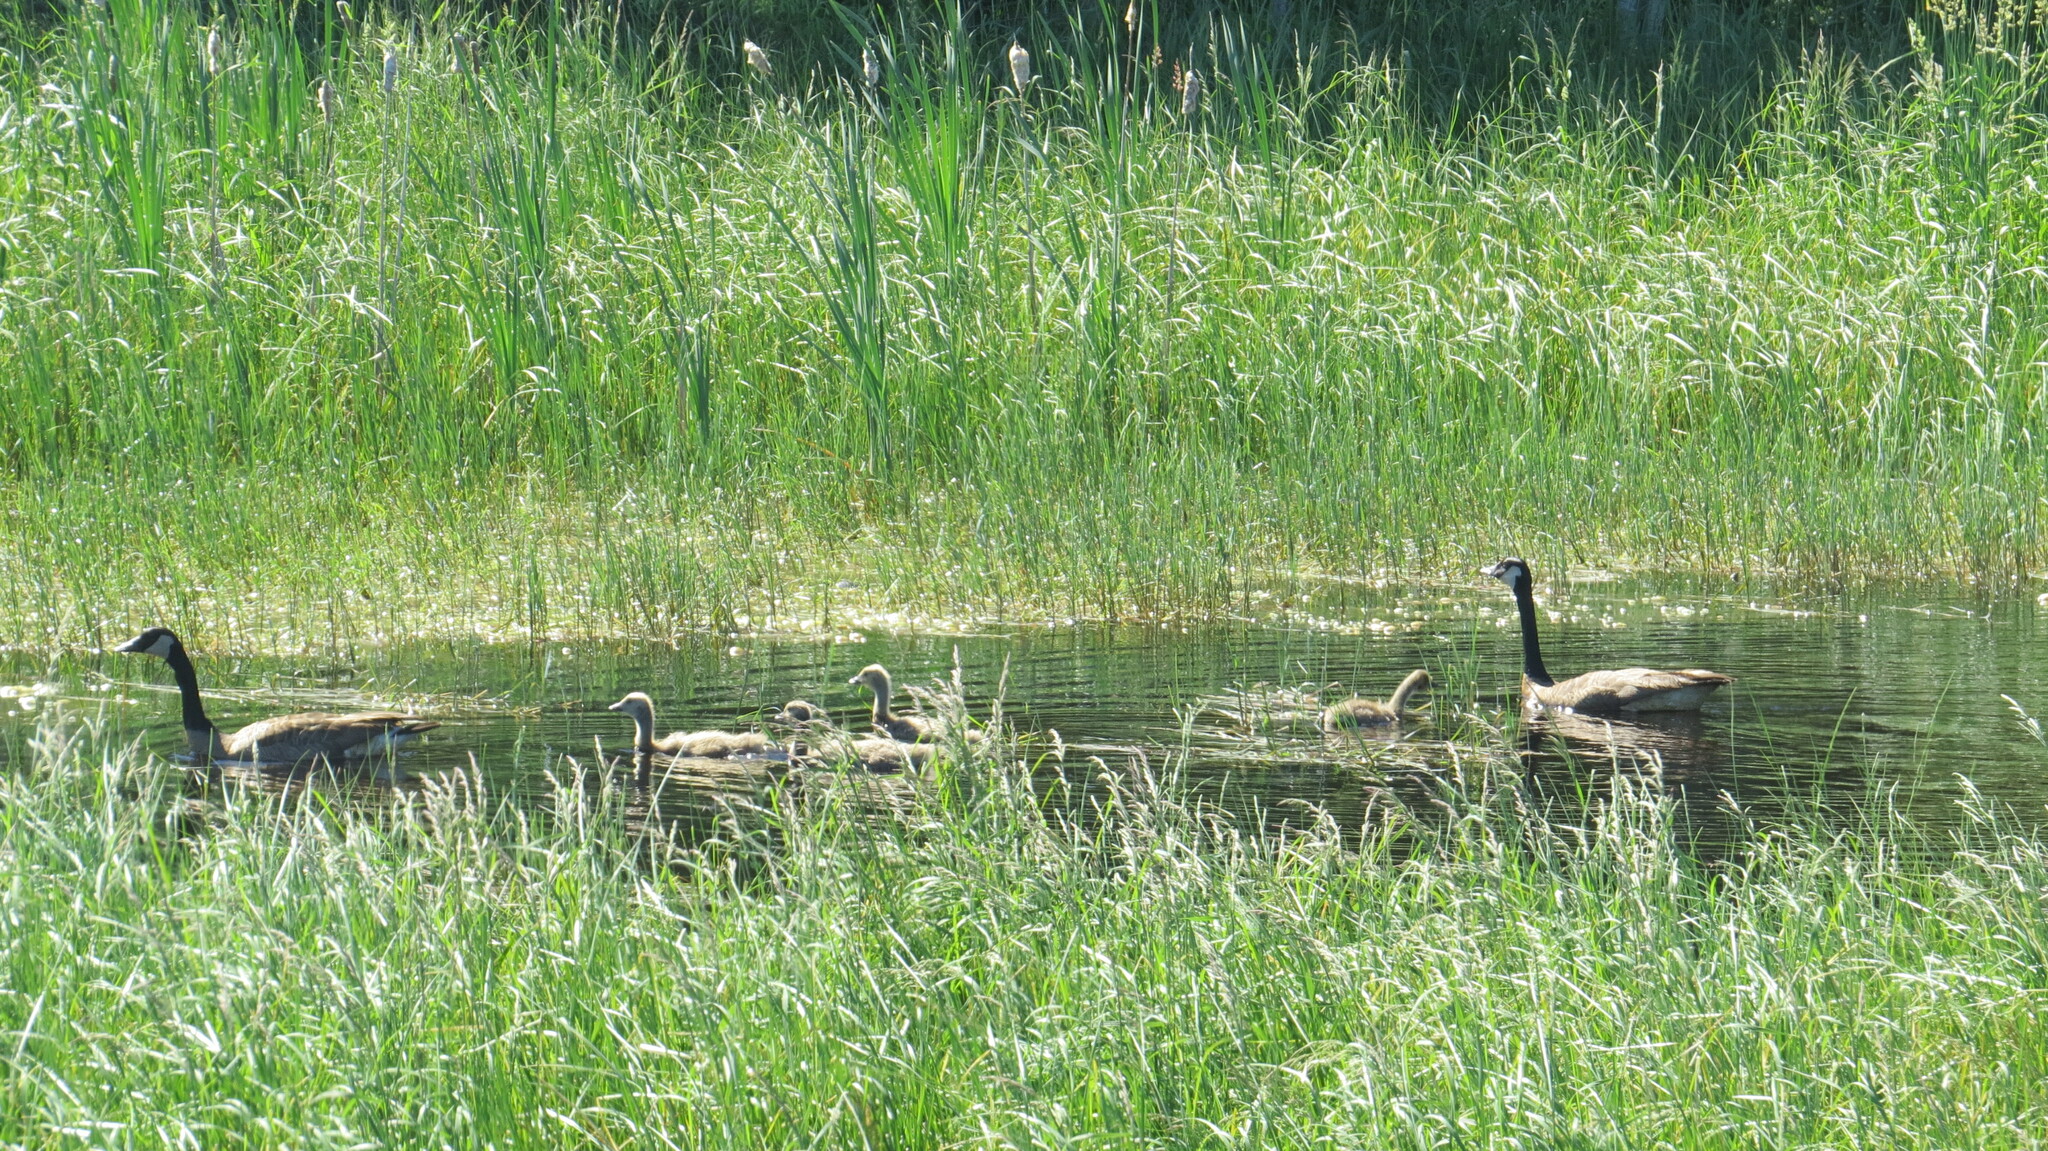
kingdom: Animalia
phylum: Chordata
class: Aves
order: Anseriformes
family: Anatidae
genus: Branta
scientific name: Branta canadensis
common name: Canada goose
